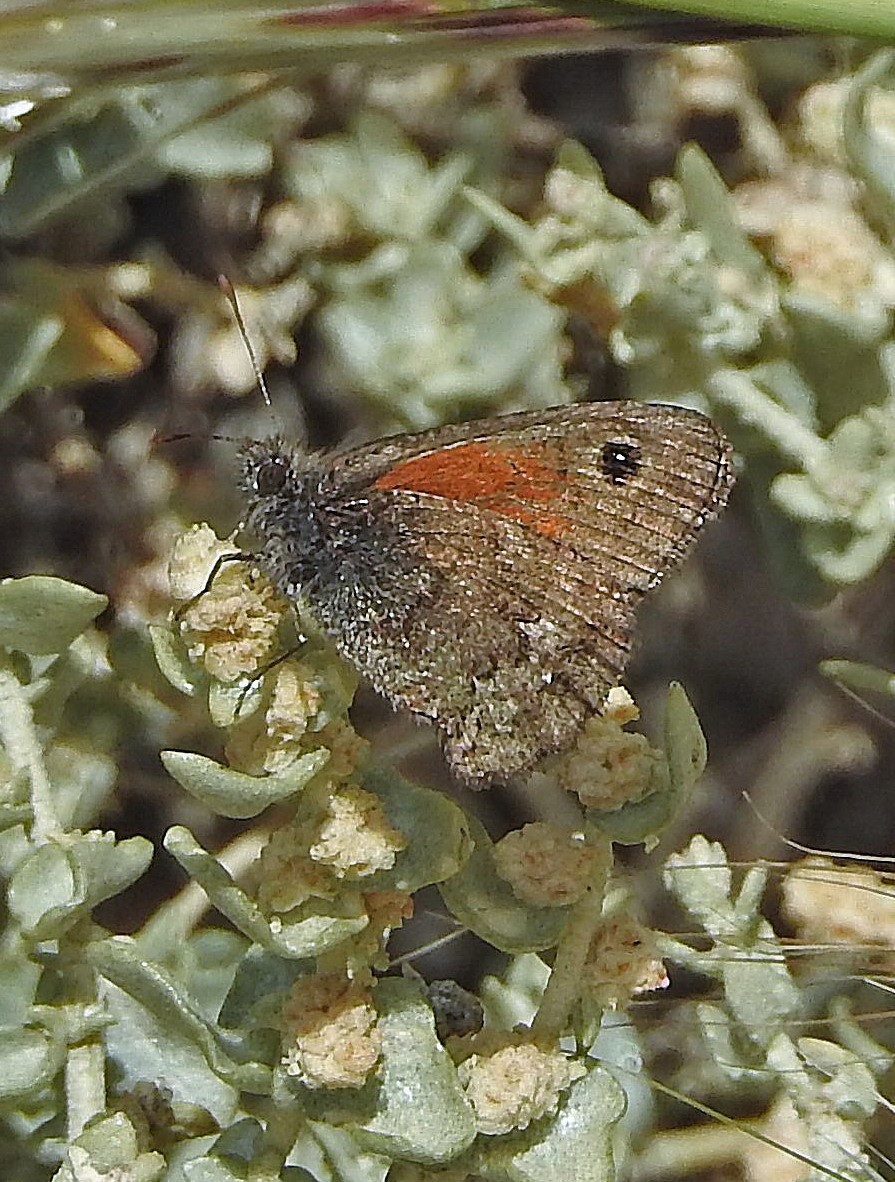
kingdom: Animalia
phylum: Arthropoda
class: Insecta
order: Lepidoptera
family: Nymphalidae
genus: Auca
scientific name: Auca coctei
